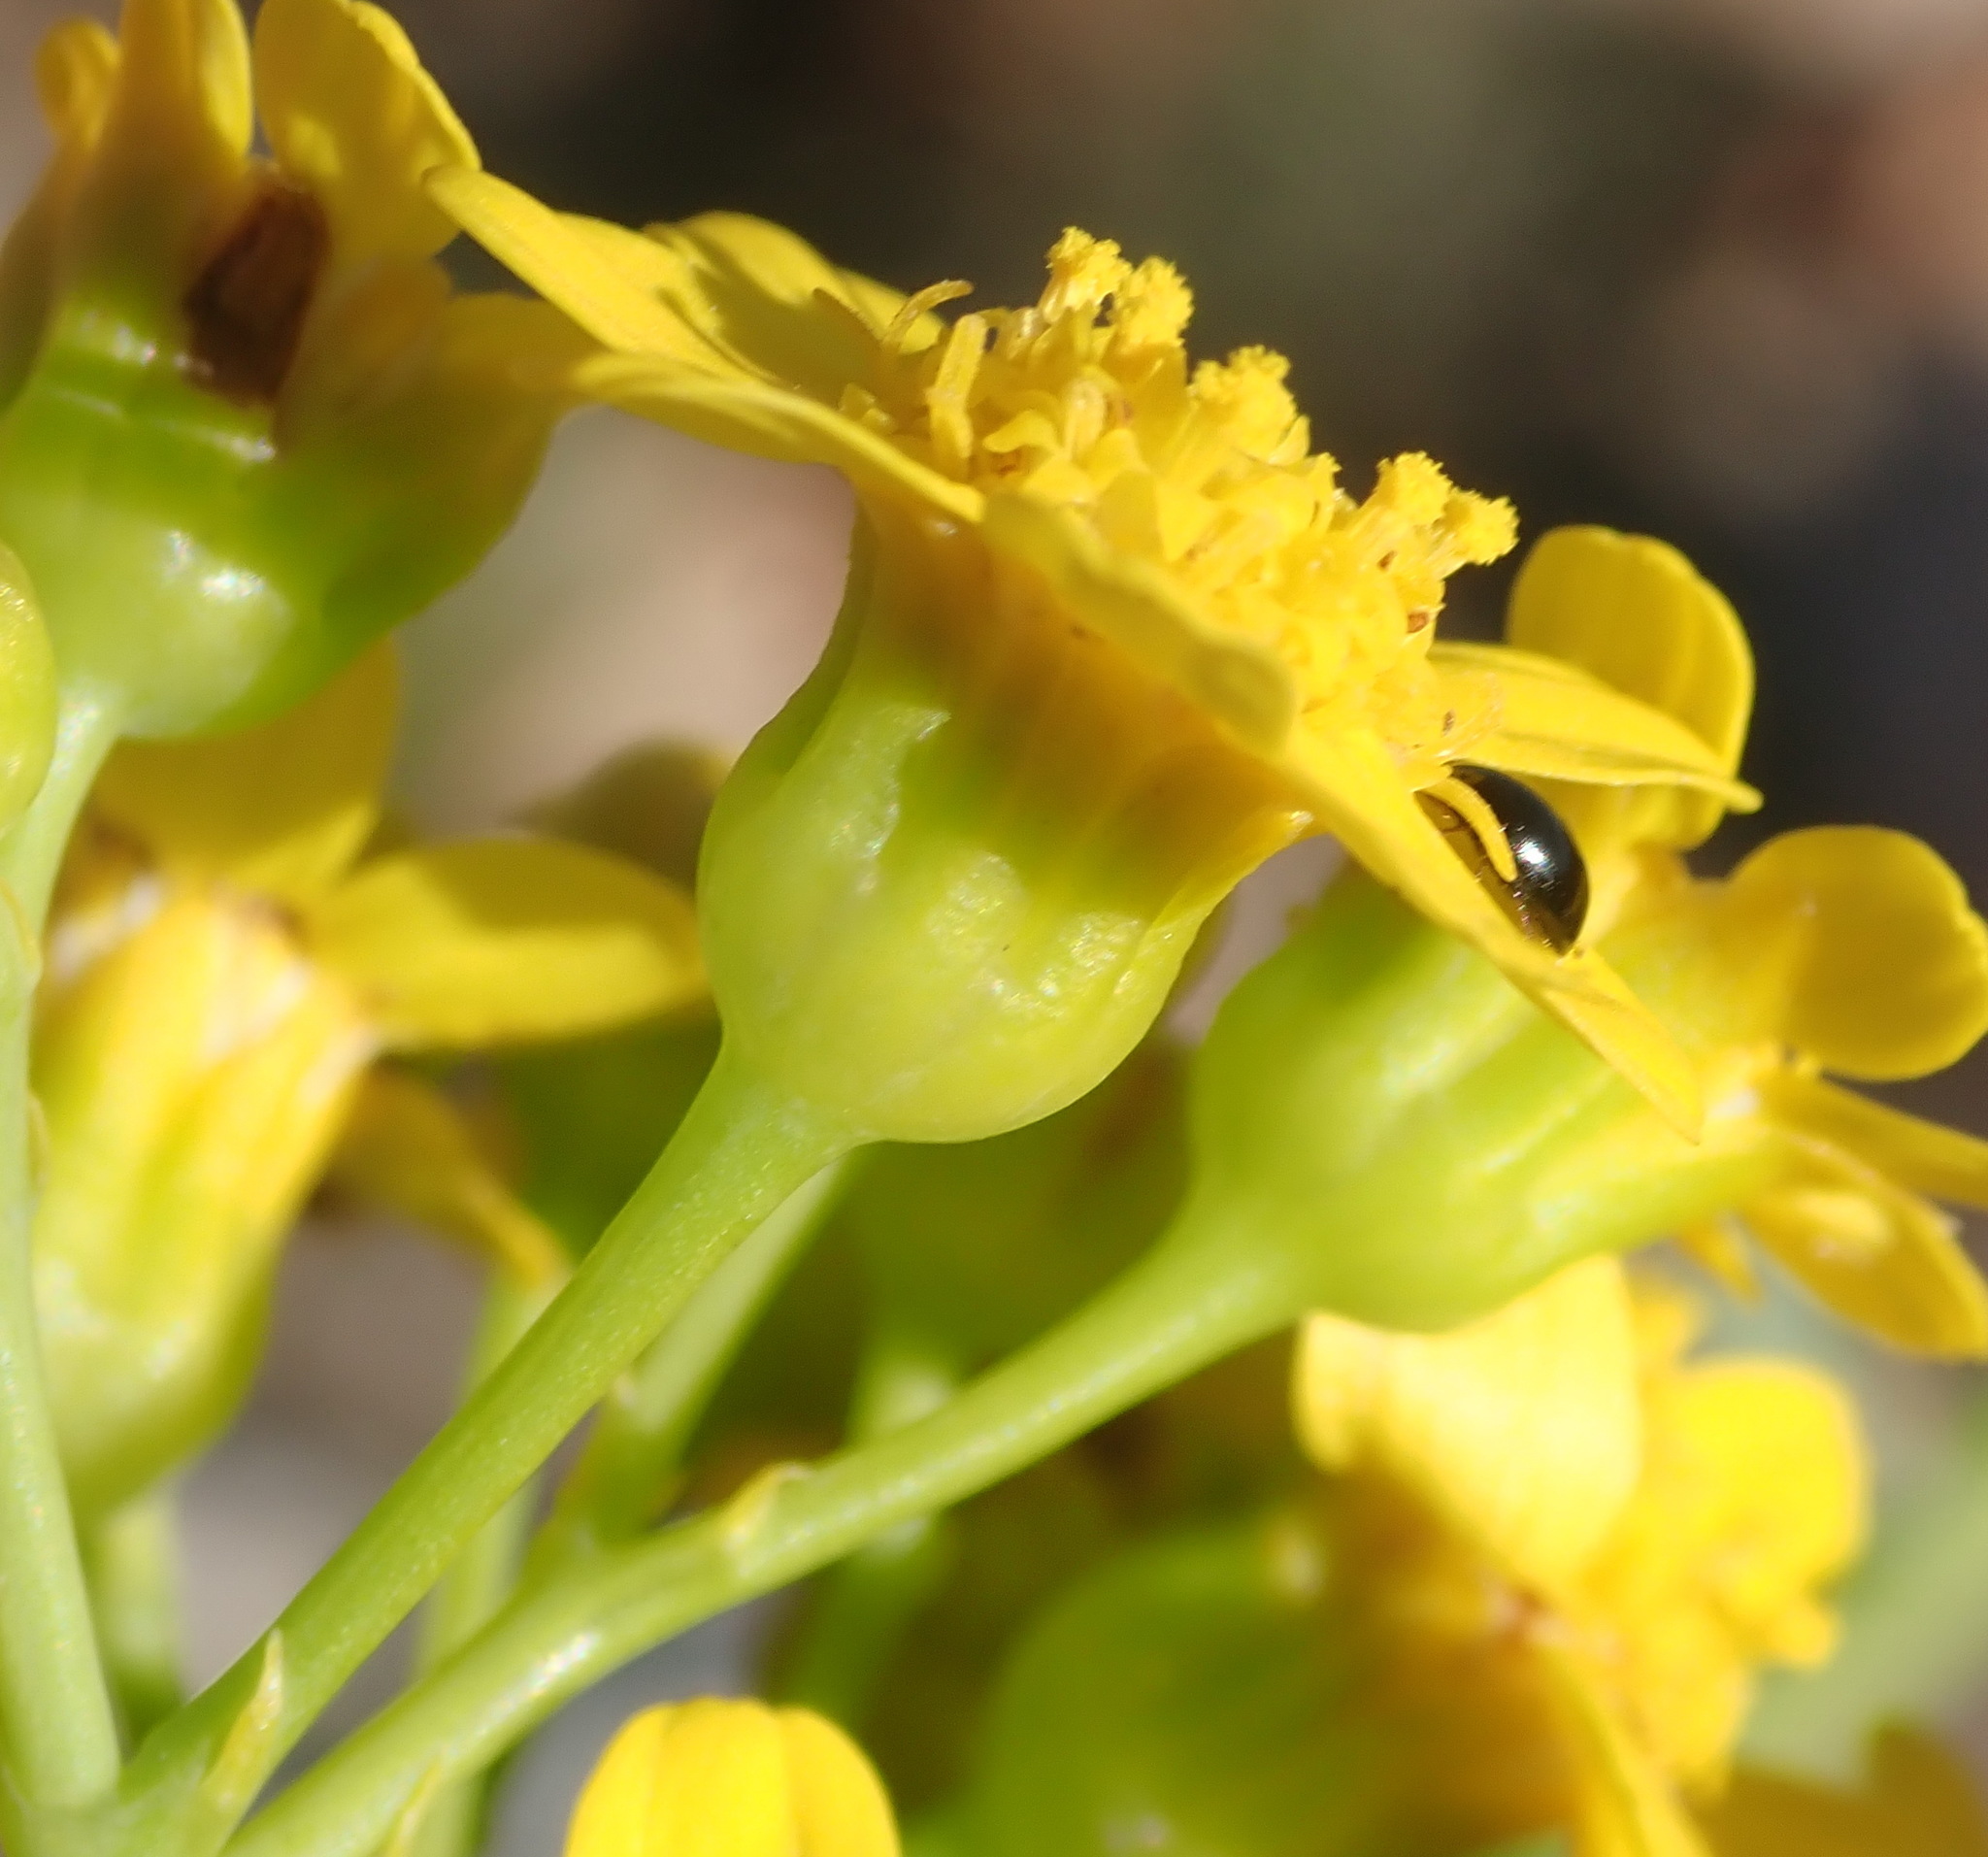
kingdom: Plantae
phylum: Tracheophyta
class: Magnoliopsida
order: Asterales
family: Asteraceae
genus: Othonna
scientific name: Othonna parviflora
